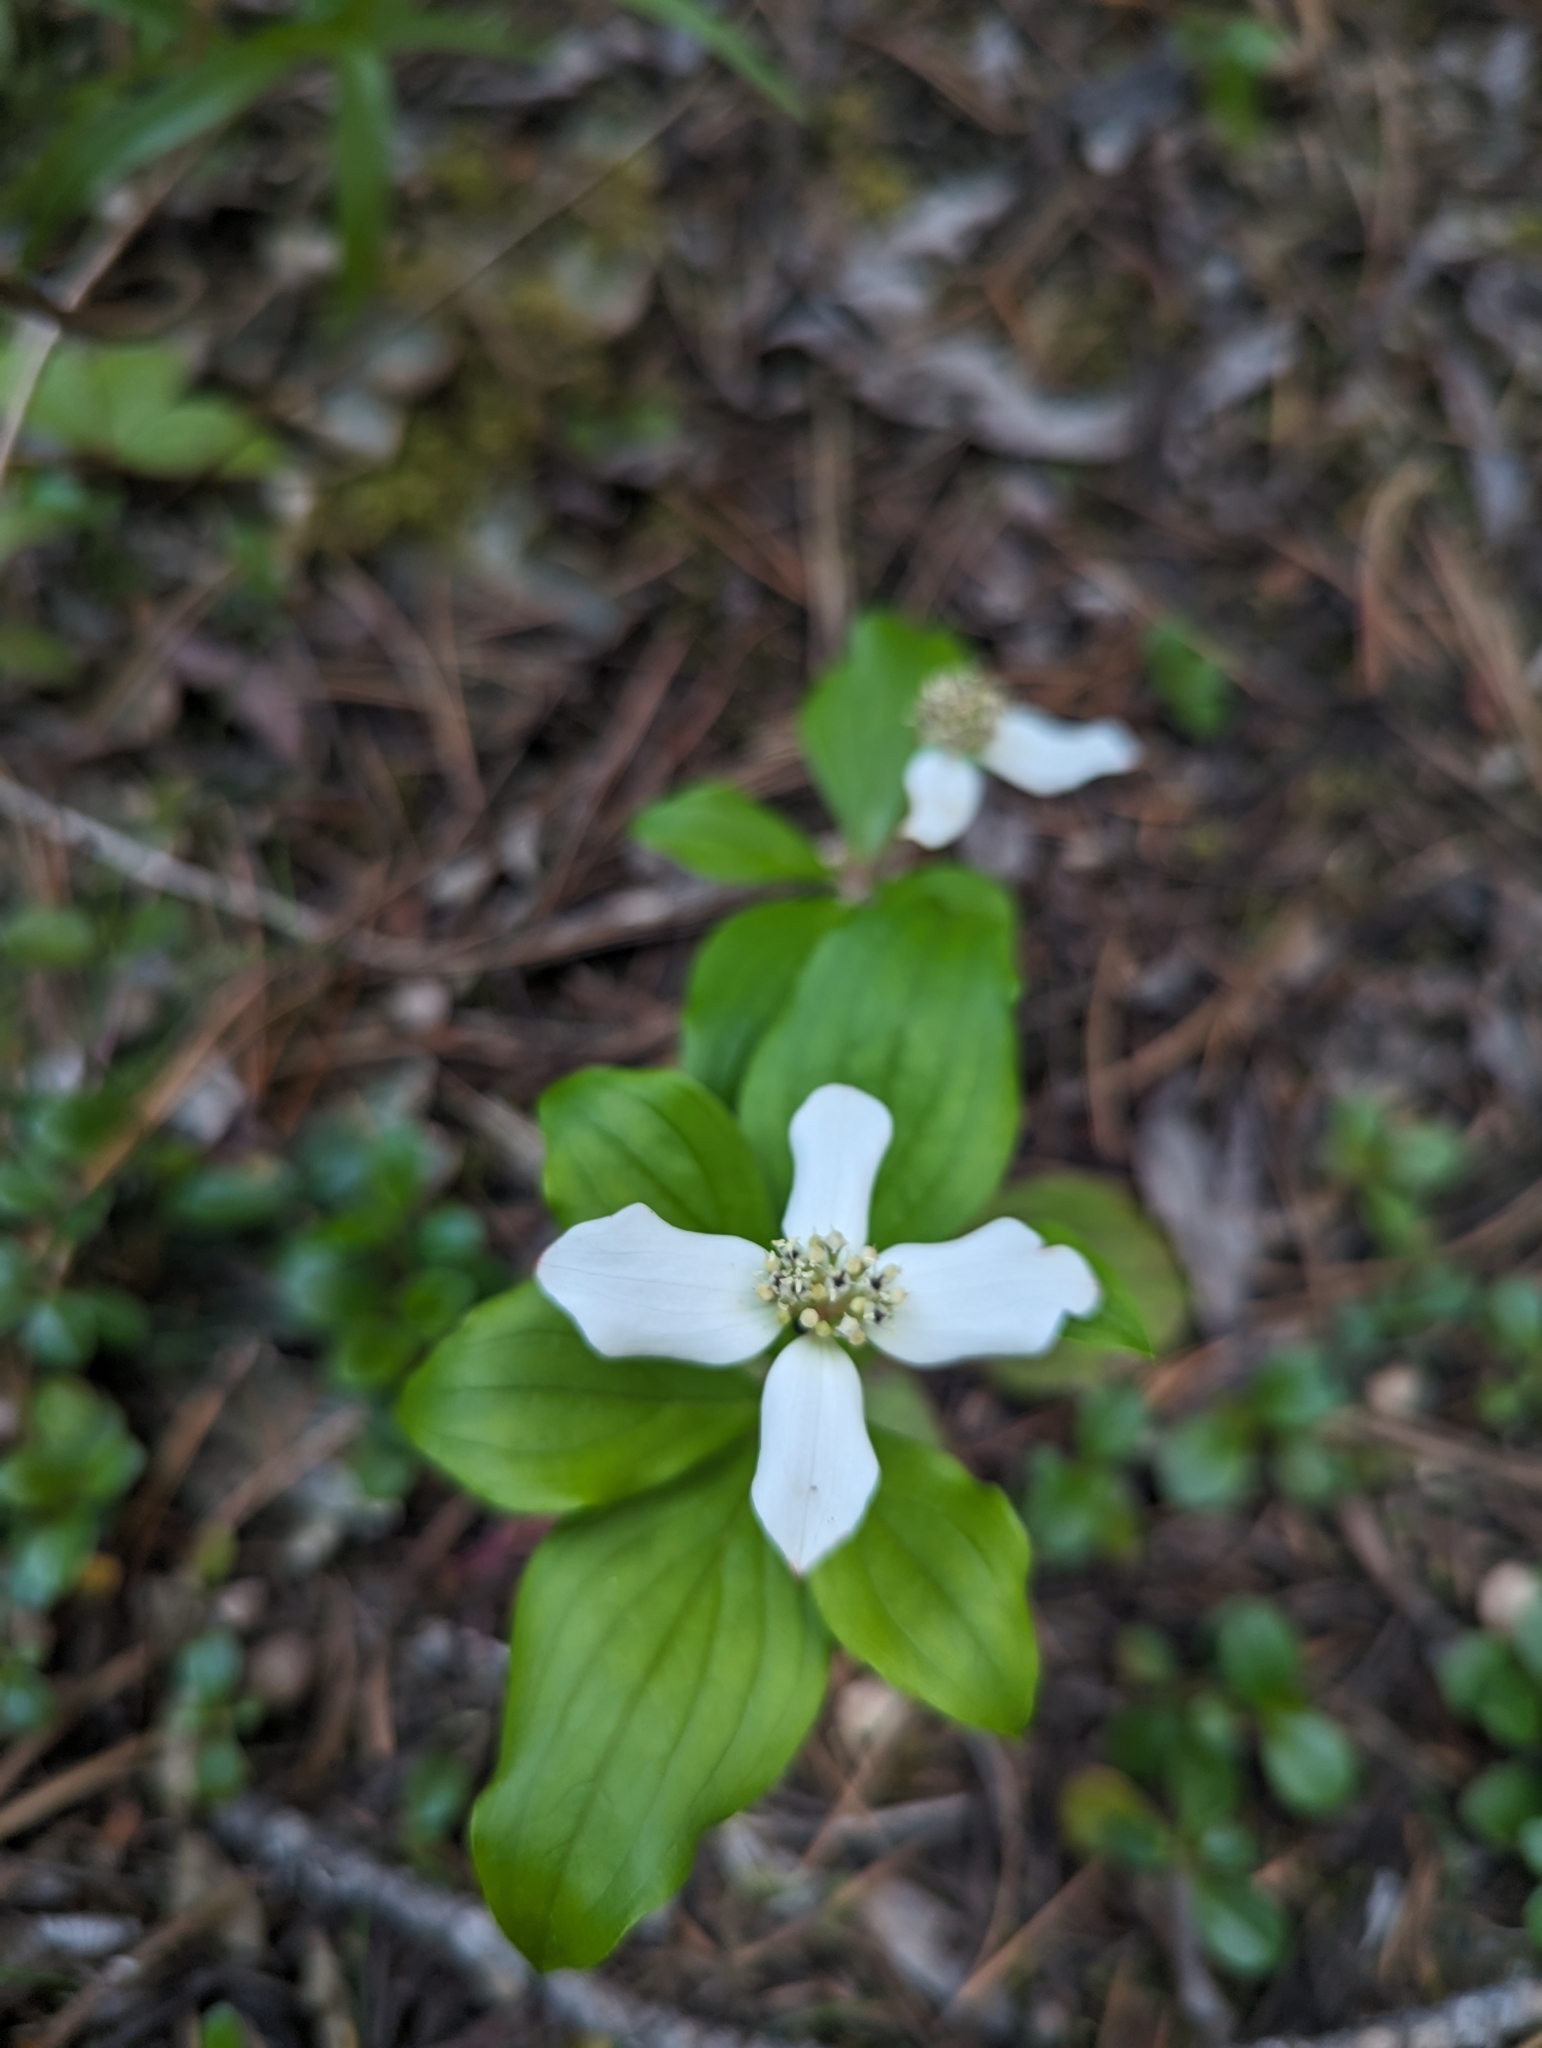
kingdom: Plantae
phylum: Tracheophyta
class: Magnoliopsida
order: Cornales
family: Cornaceae
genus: Cornus
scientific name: Cornus canadensis
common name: Creeping dogwood
